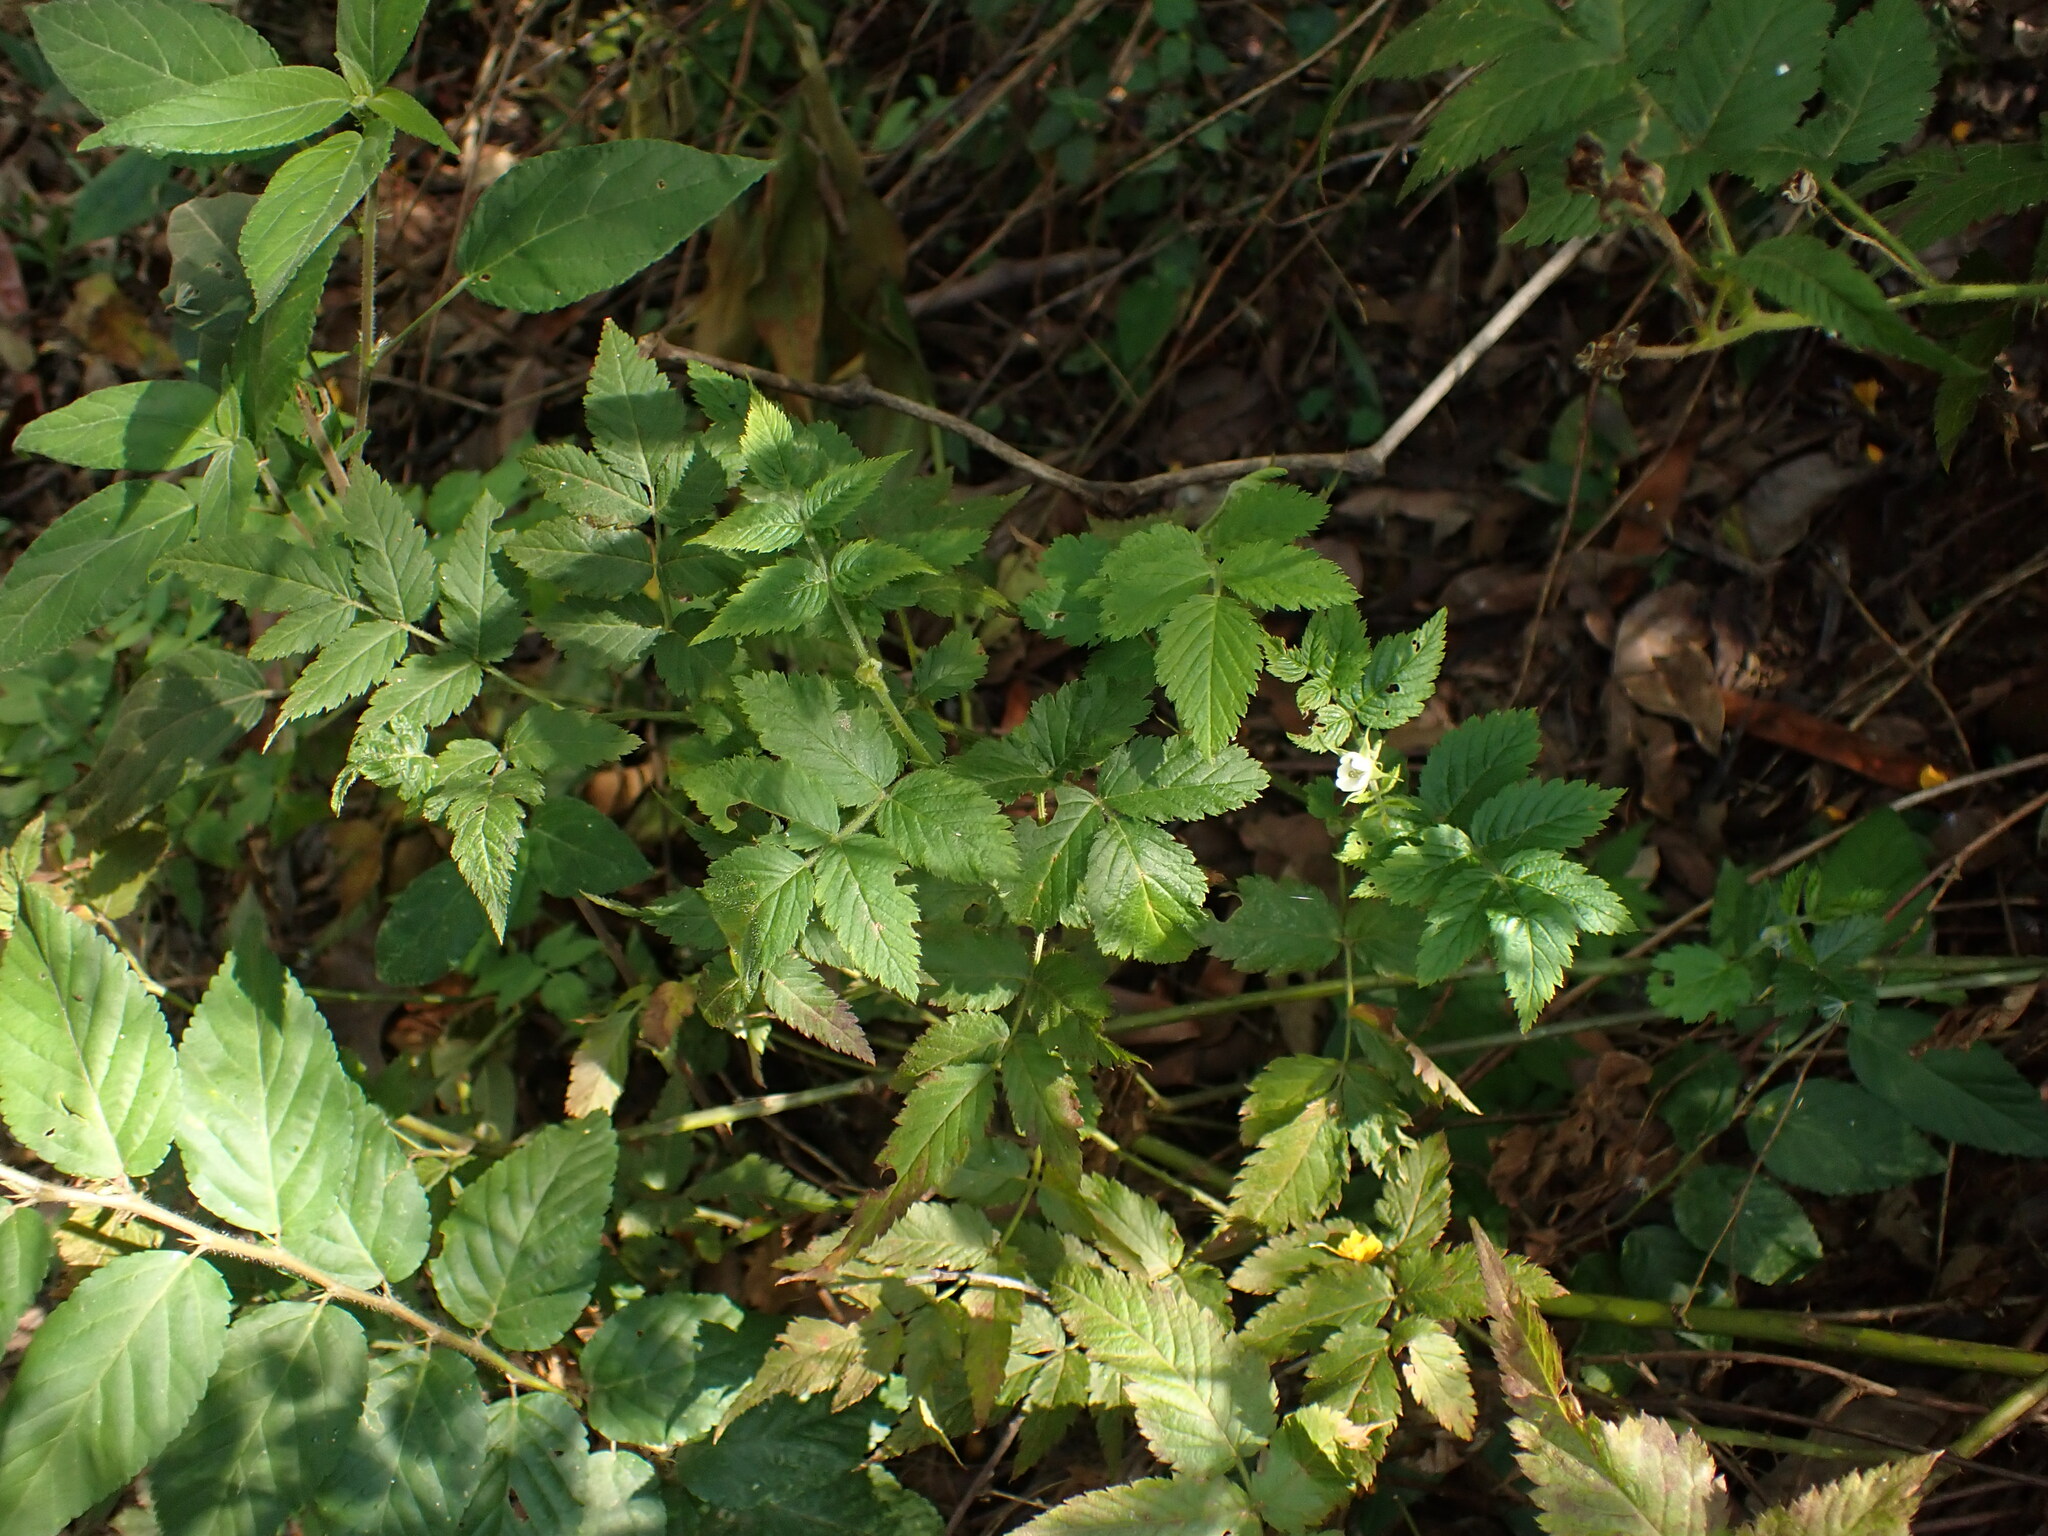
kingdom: Plantae
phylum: Tracheophyta
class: Magnoliopsida
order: Rosales
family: Rosaceae
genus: Rubus
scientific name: Rubus rosifolius
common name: Roseleaf raspberry
